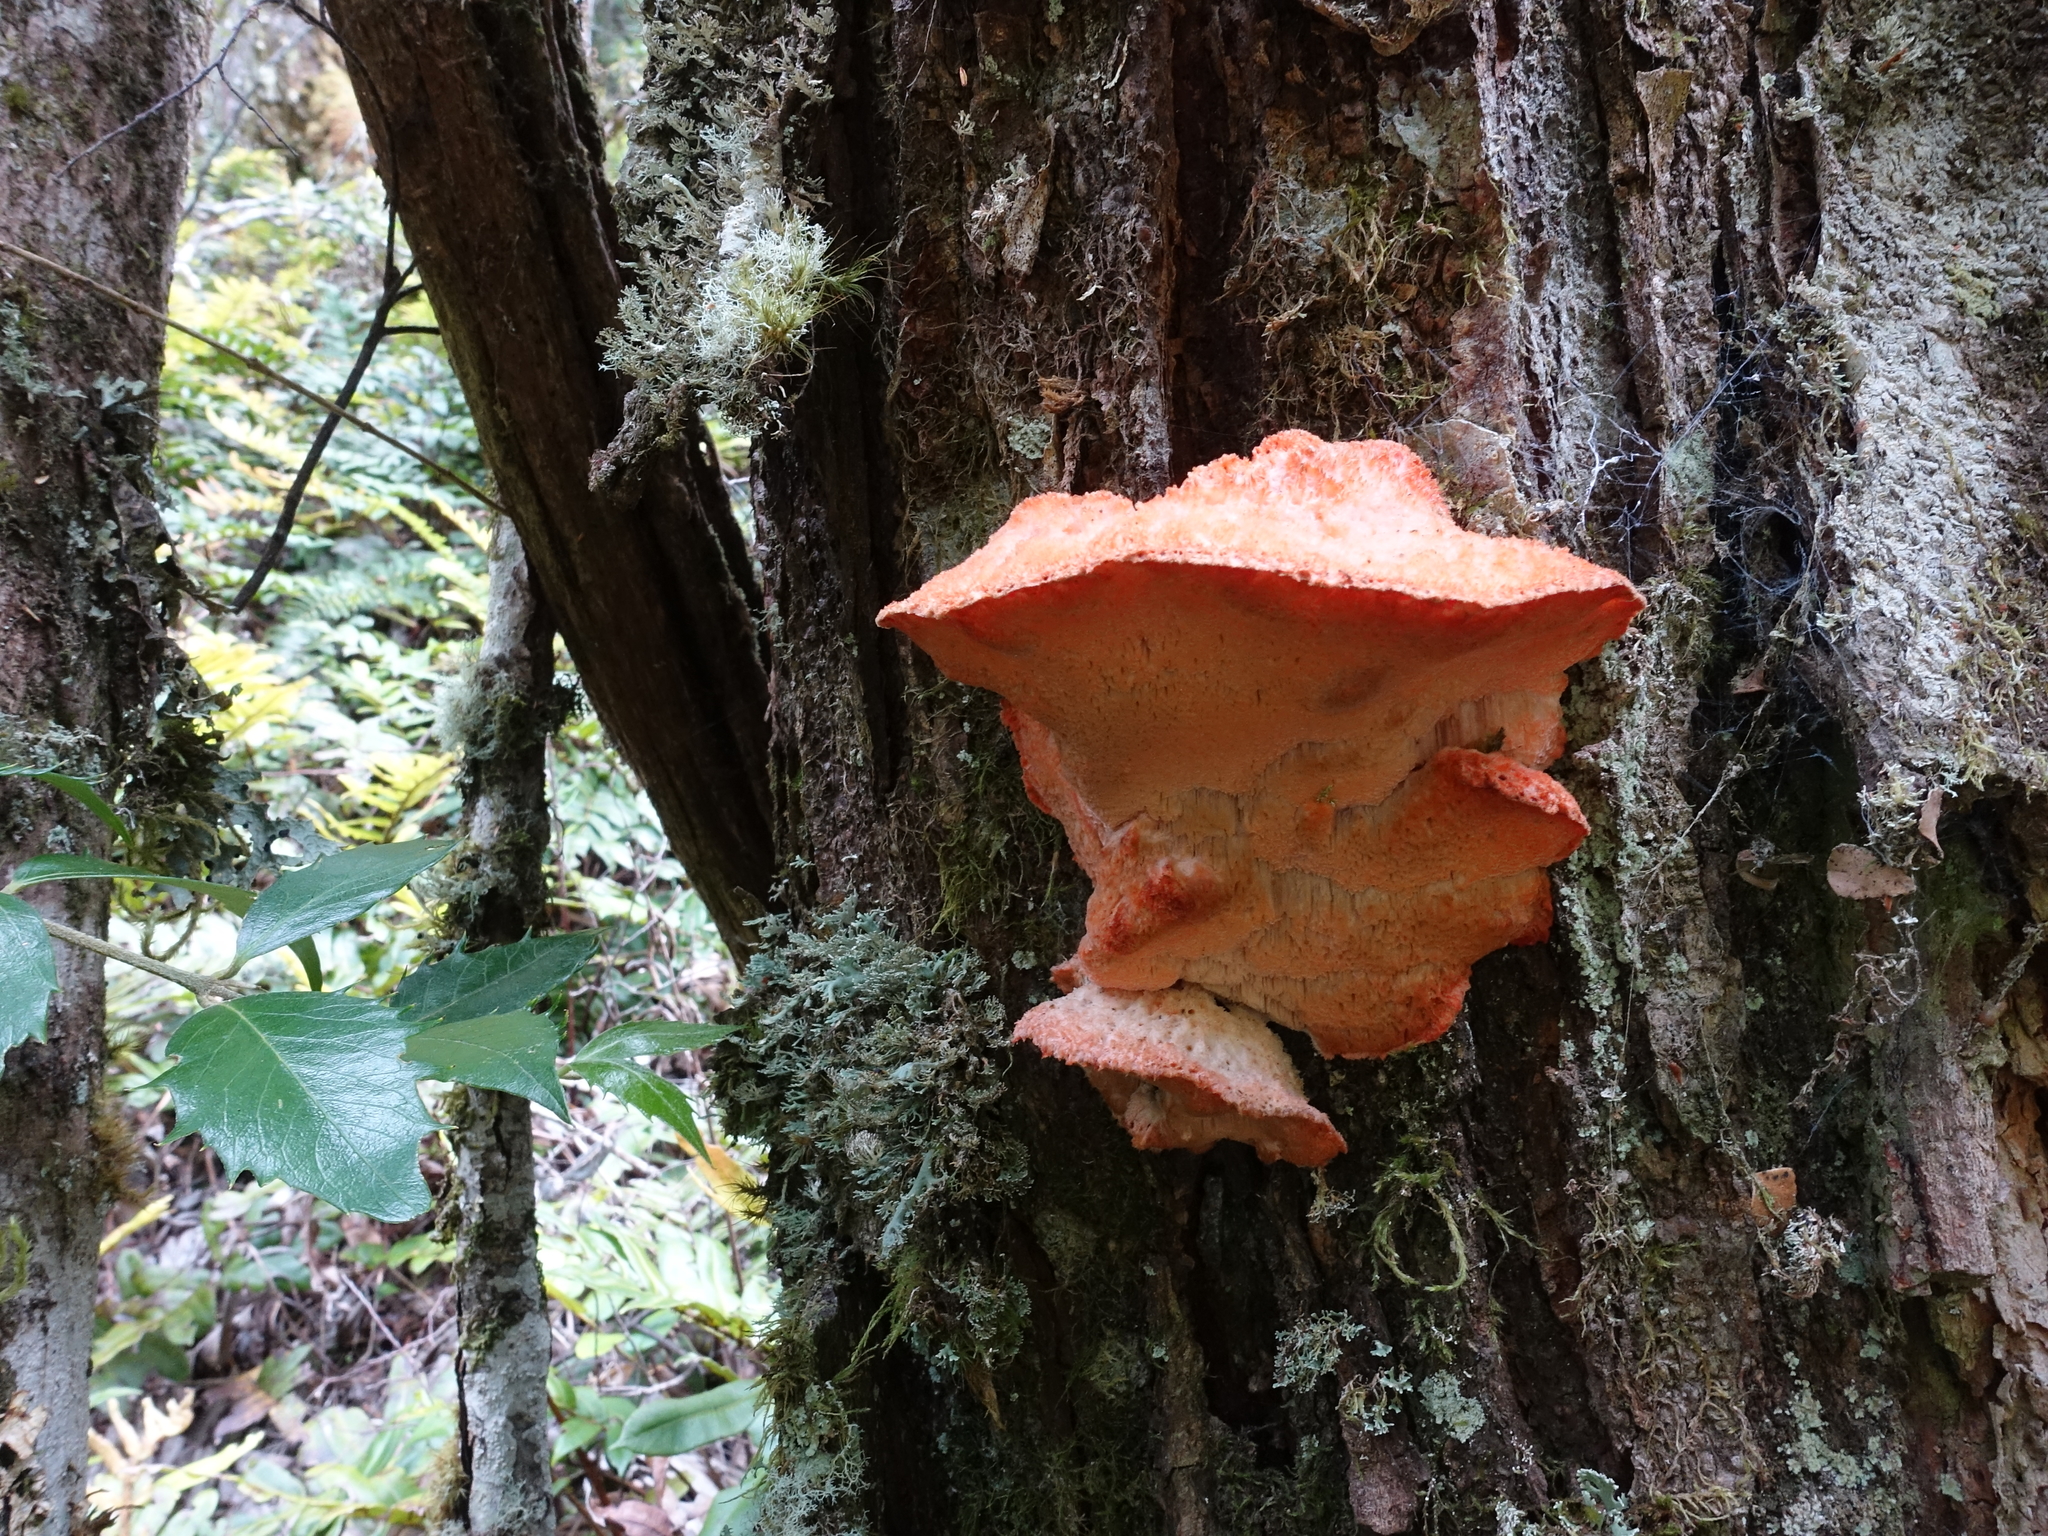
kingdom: Fungi
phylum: Basidiomycota
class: Agaricomycetes
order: Polyporales
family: Incrustoporiaceae
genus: Tyromyces
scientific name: Tyromyces pulcherrimus
